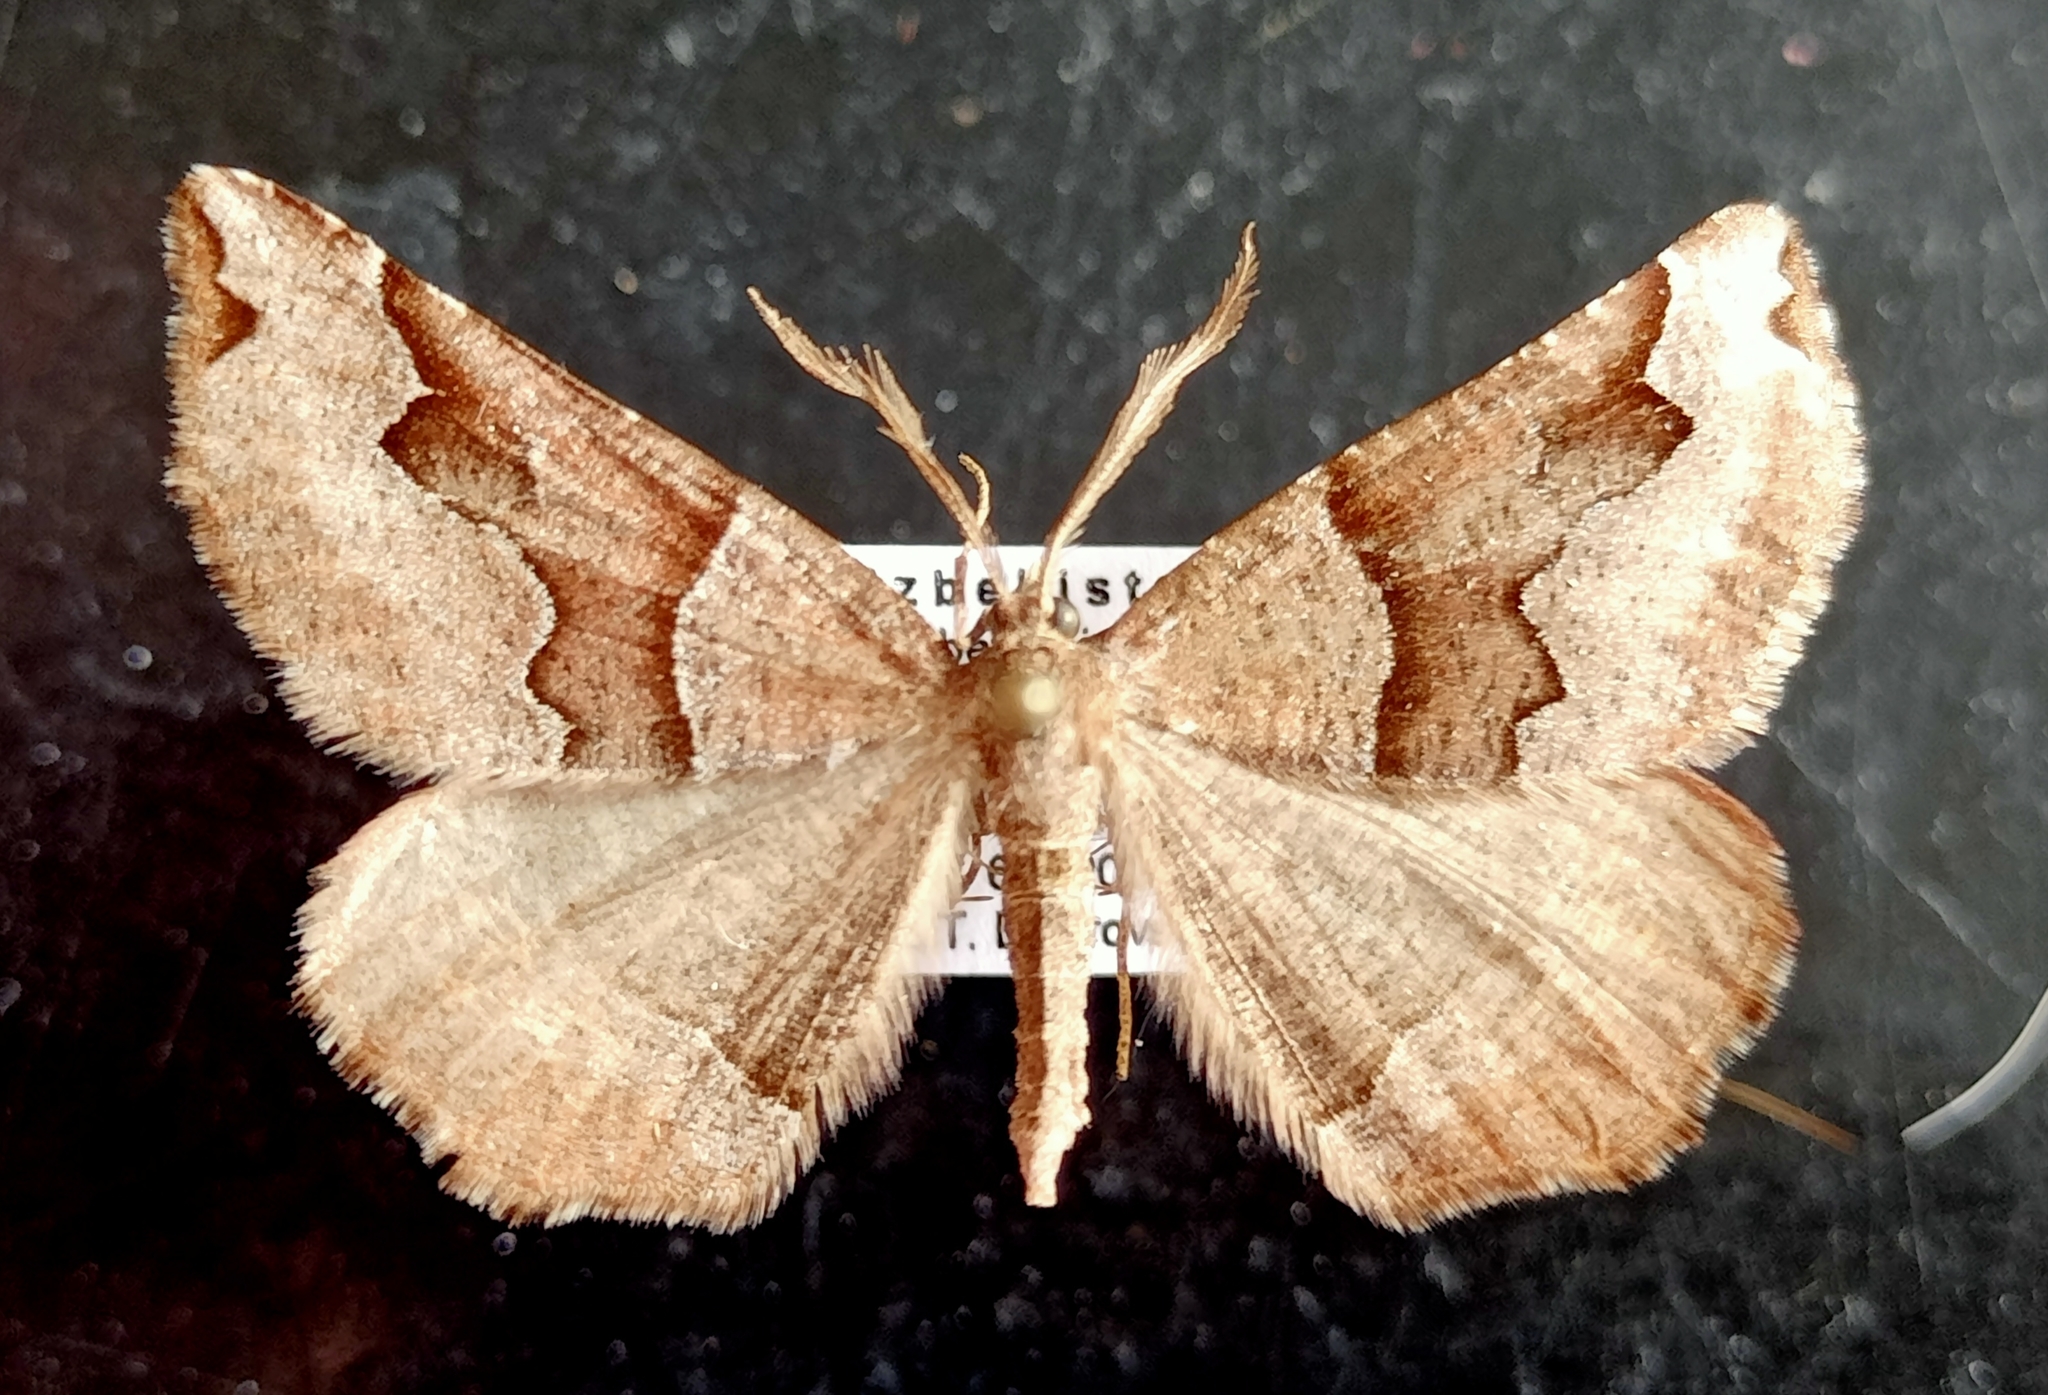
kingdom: Animalia
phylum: Arthropoda
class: Insecta
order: Lepidoptera
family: Geometridae
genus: Artemidora
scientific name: Artemidora maracandaria
